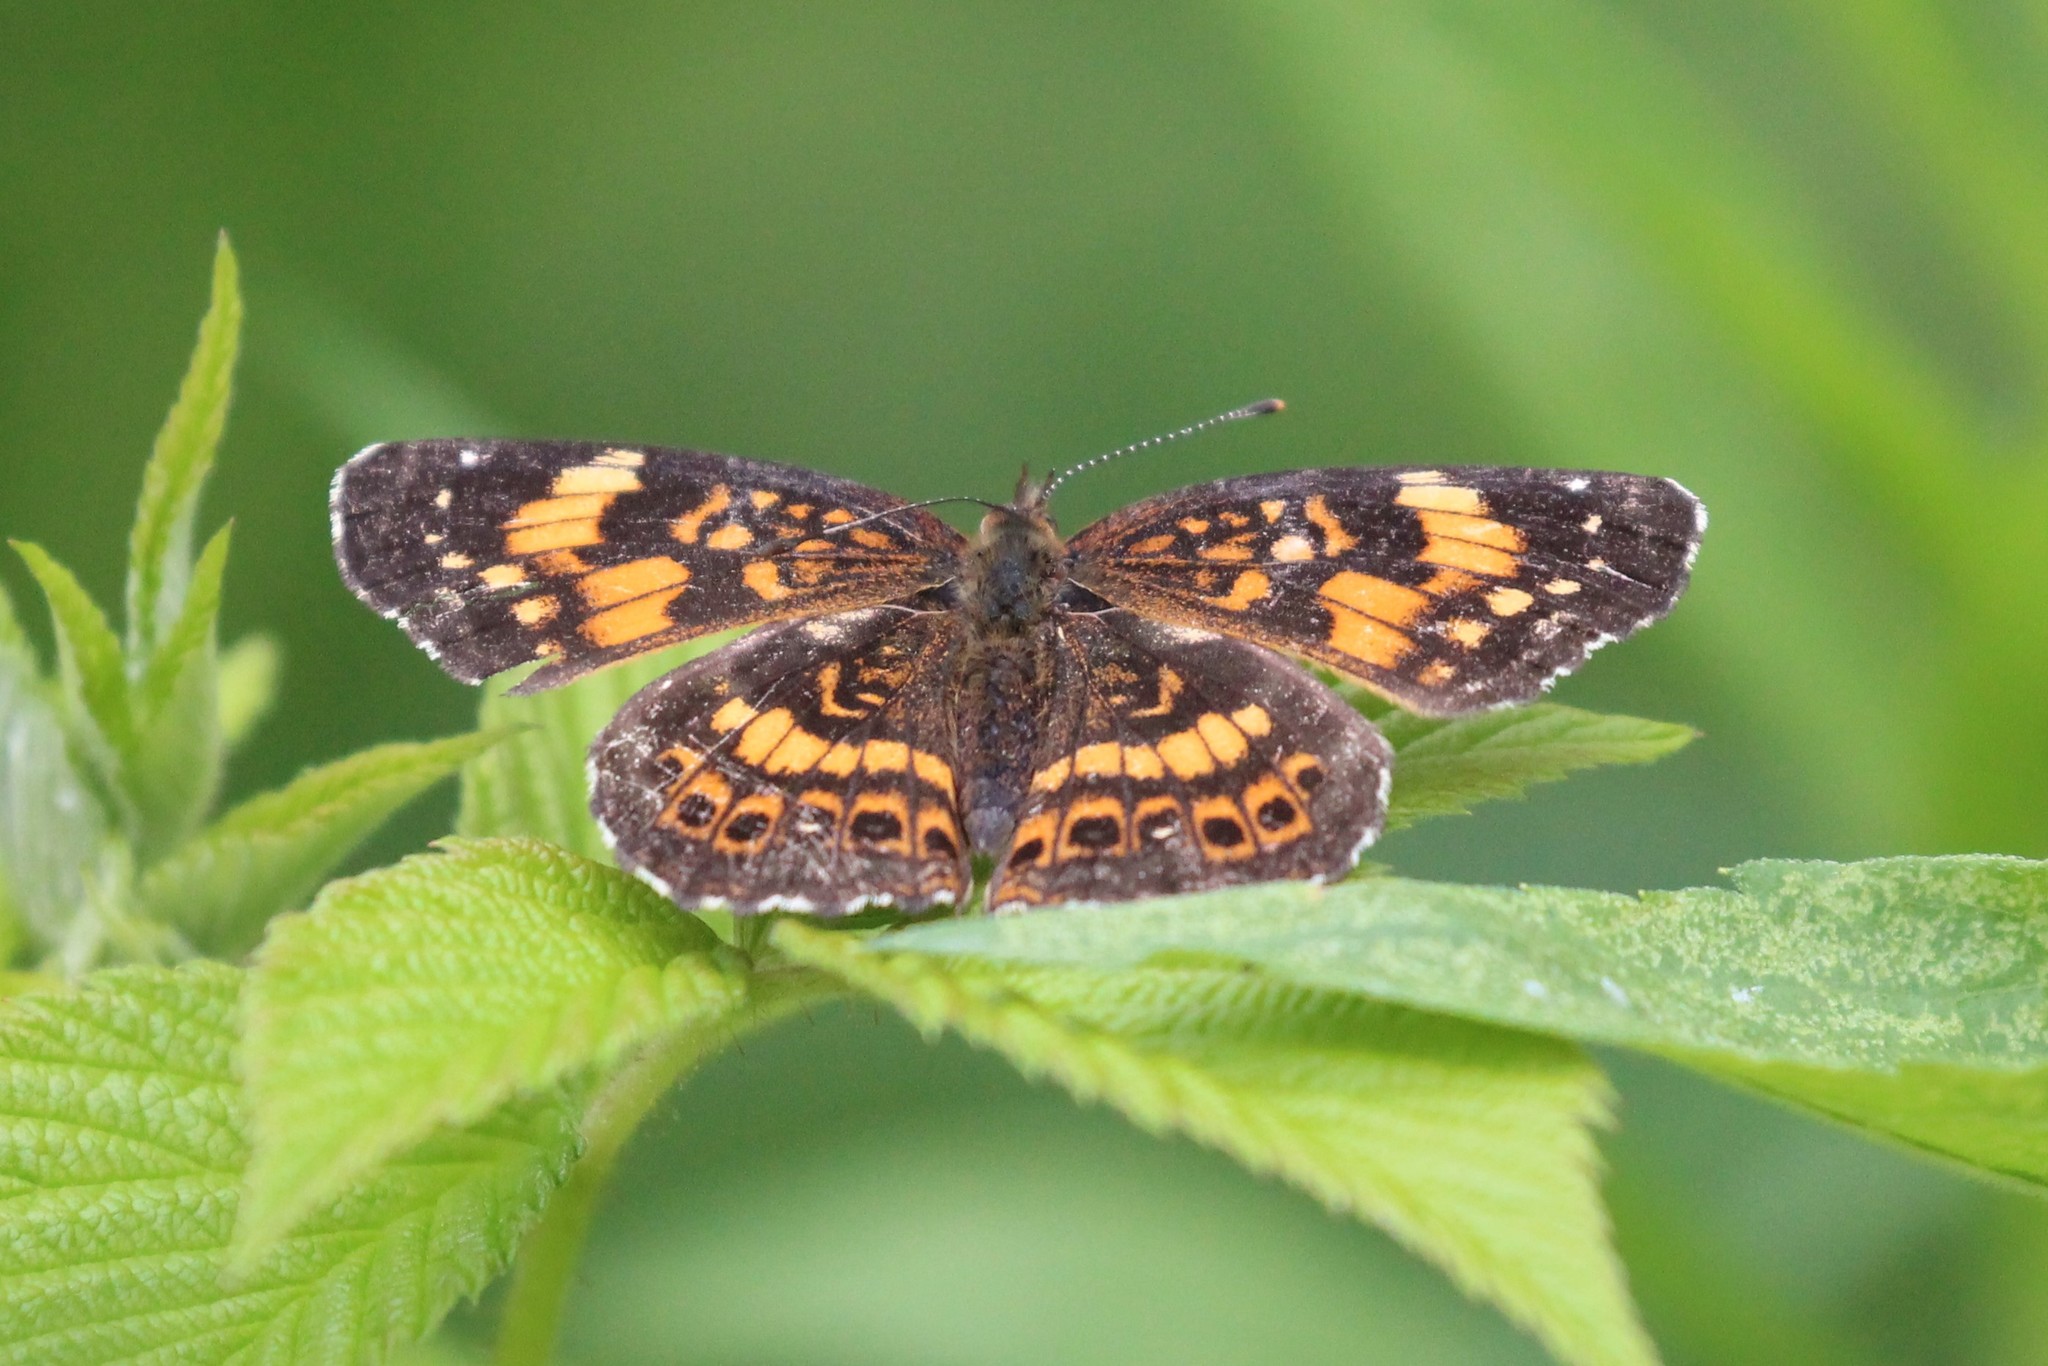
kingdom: Animalia
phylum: Arthropoda
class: Insecta
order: Lepidoptera
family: Nymphalidae
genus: Chlosyne
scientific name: Chlosyne nycteis
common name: Silvery checkerspot
